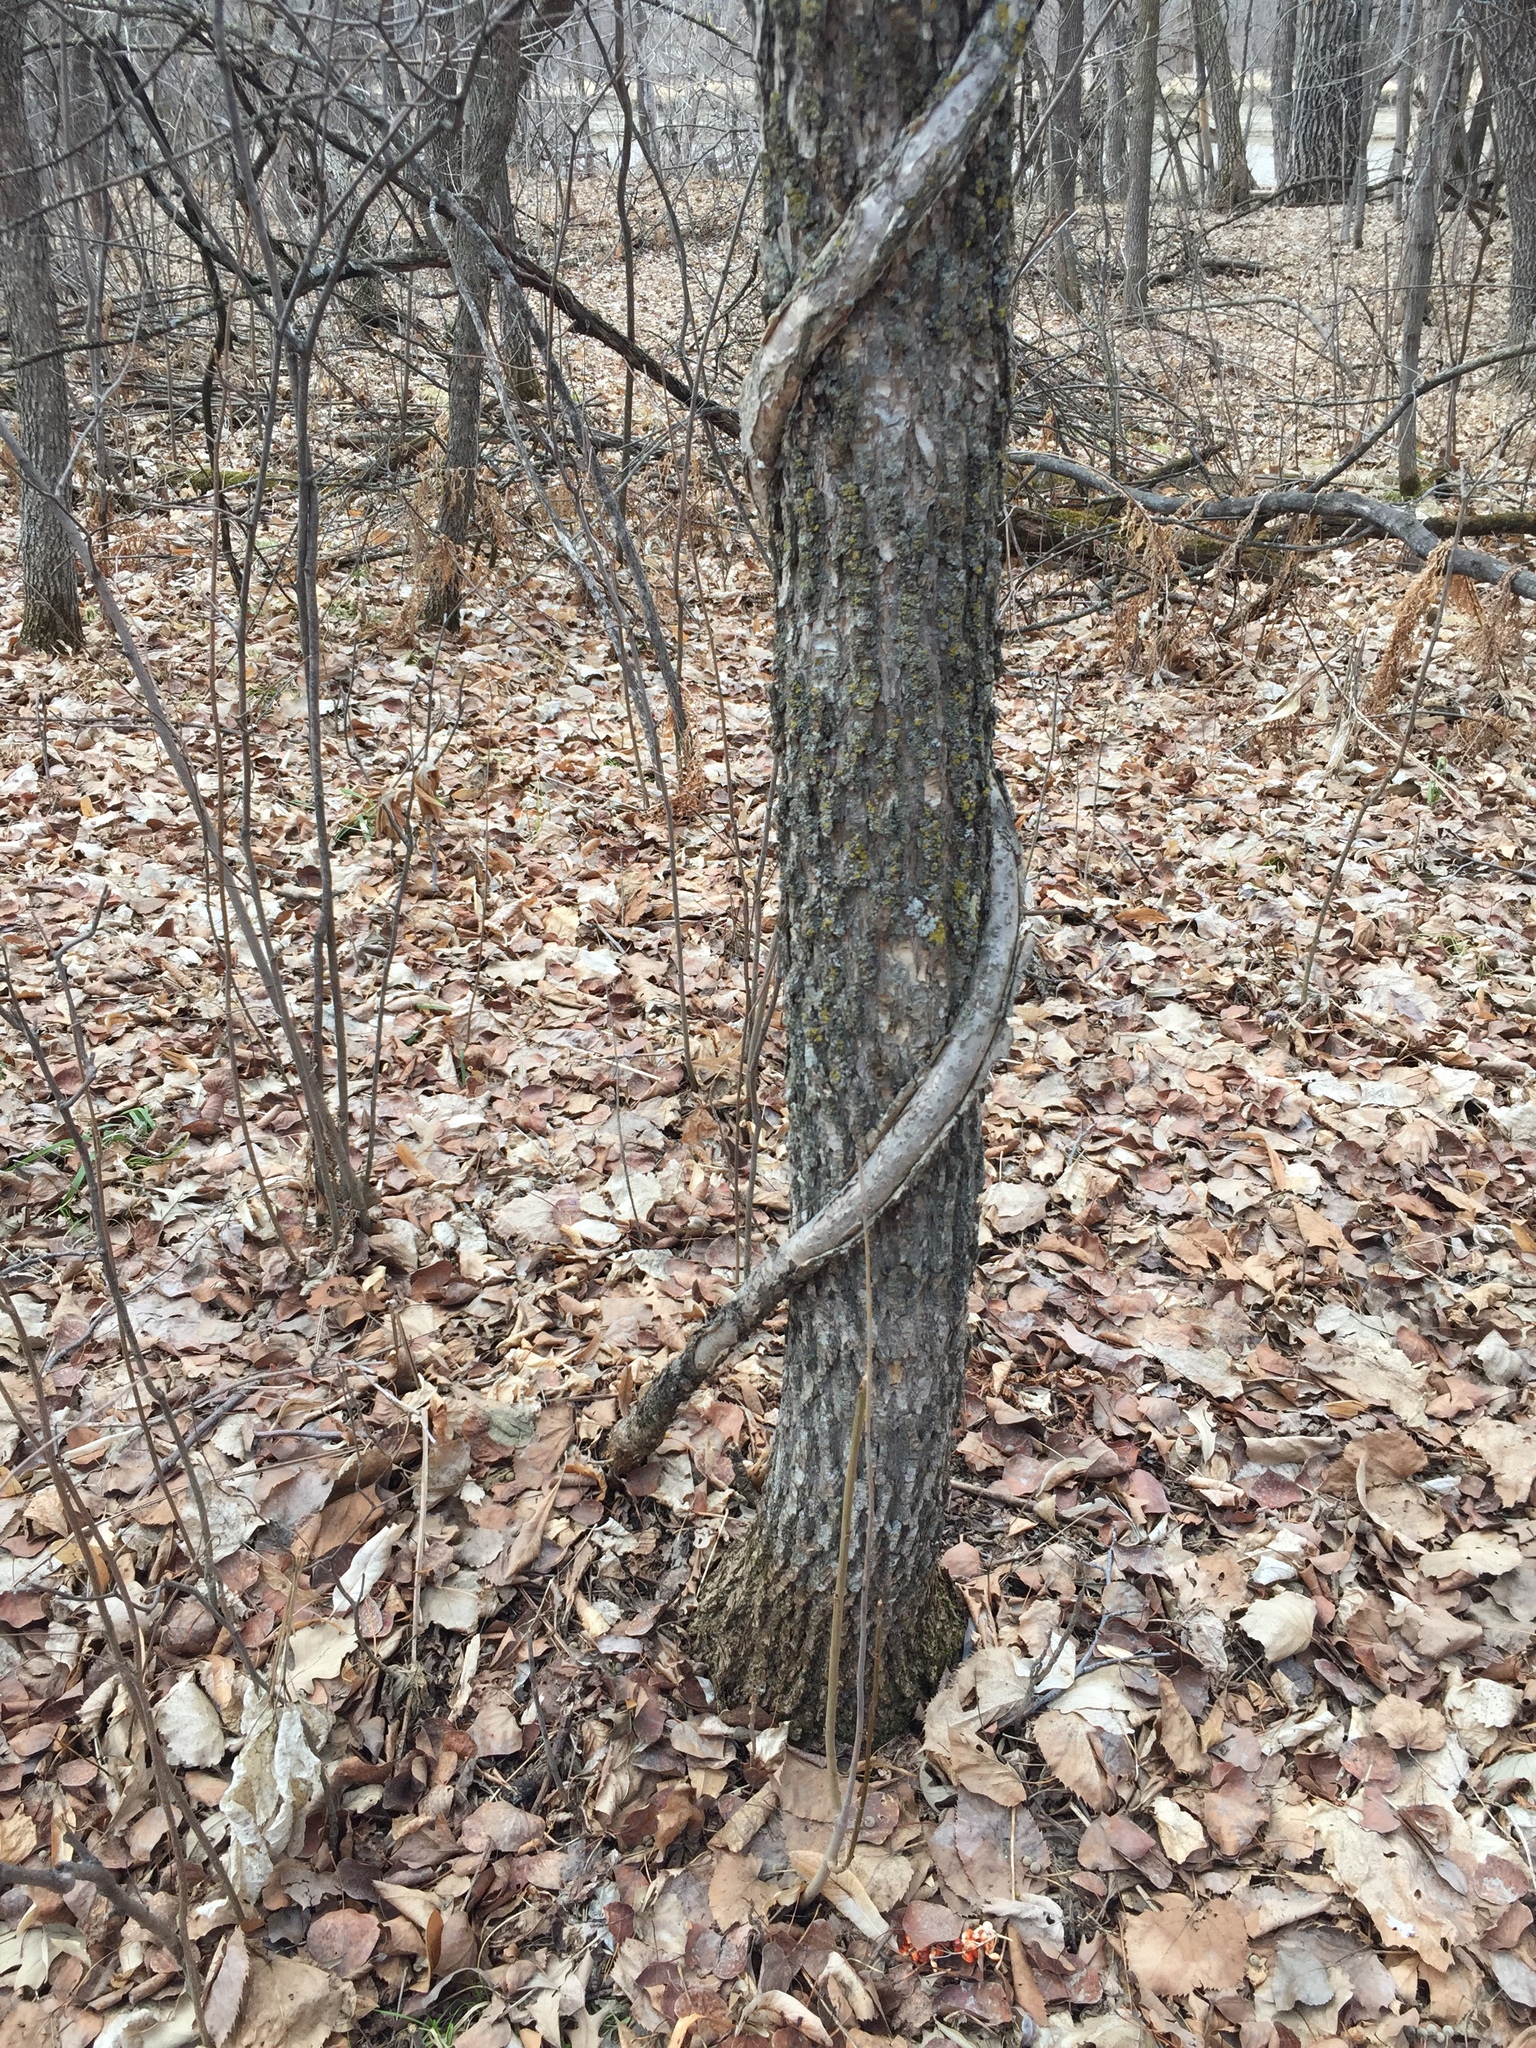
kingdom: Plantae
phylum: Tracheophyta
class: Magnoliopsida
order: Celastrales
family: Celastraceae
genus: Celastrus
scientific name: Celastrus scandens
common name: American bittersweet
